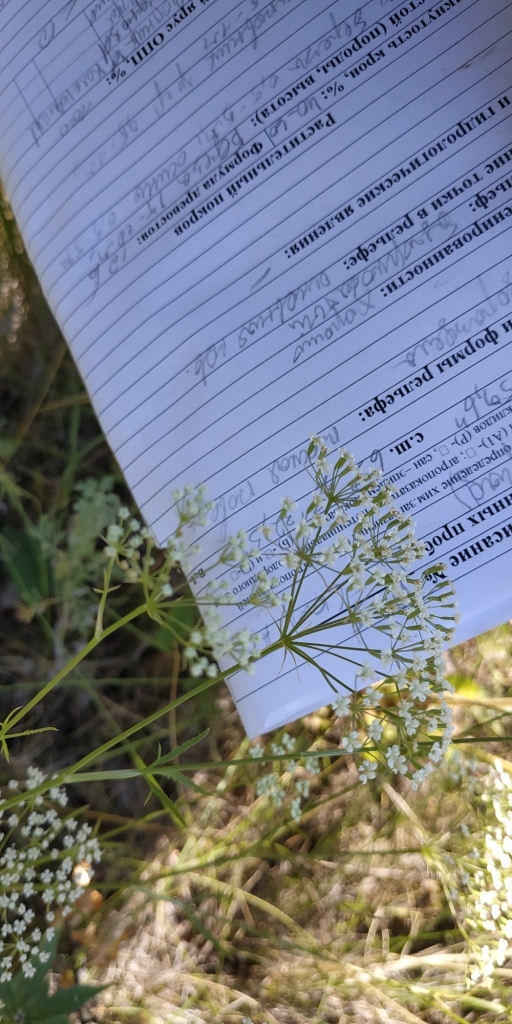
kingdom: Plantae
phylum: Tracheophyta
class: Magnoliopsida
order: Apiales
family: Apiaceae
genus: Falcaria
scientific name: Falcaria vulgaris
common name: Longleaf
